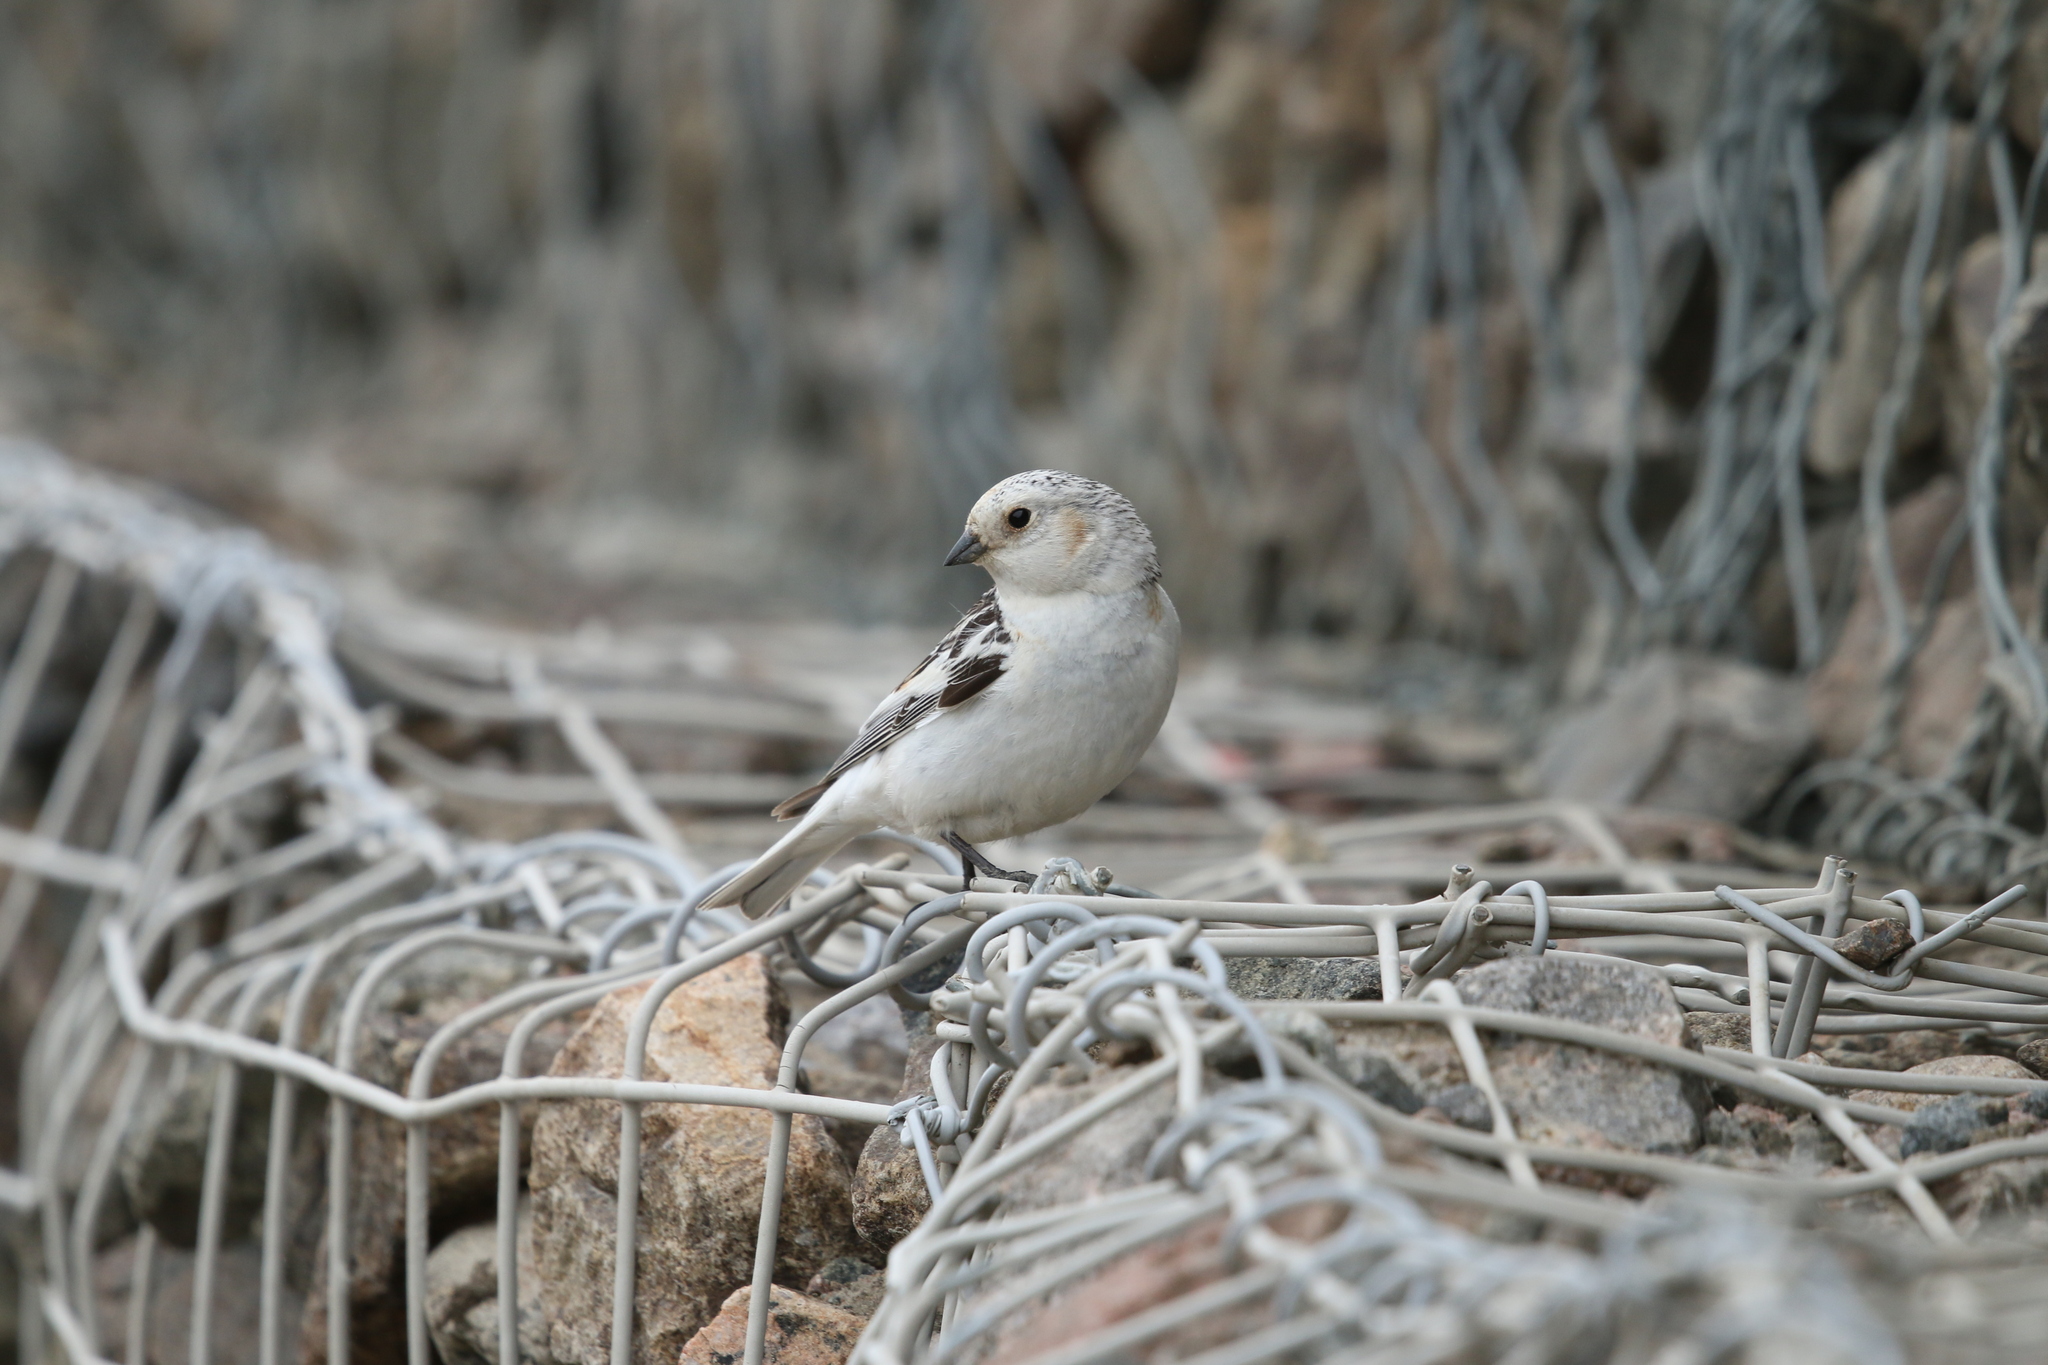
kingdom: Animalia
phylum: Chordata
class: Aves
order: Passeriformes
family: Calcariidae
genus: Plectrophenax
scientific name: Plectrophenax nivalis
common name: Snow bunting
